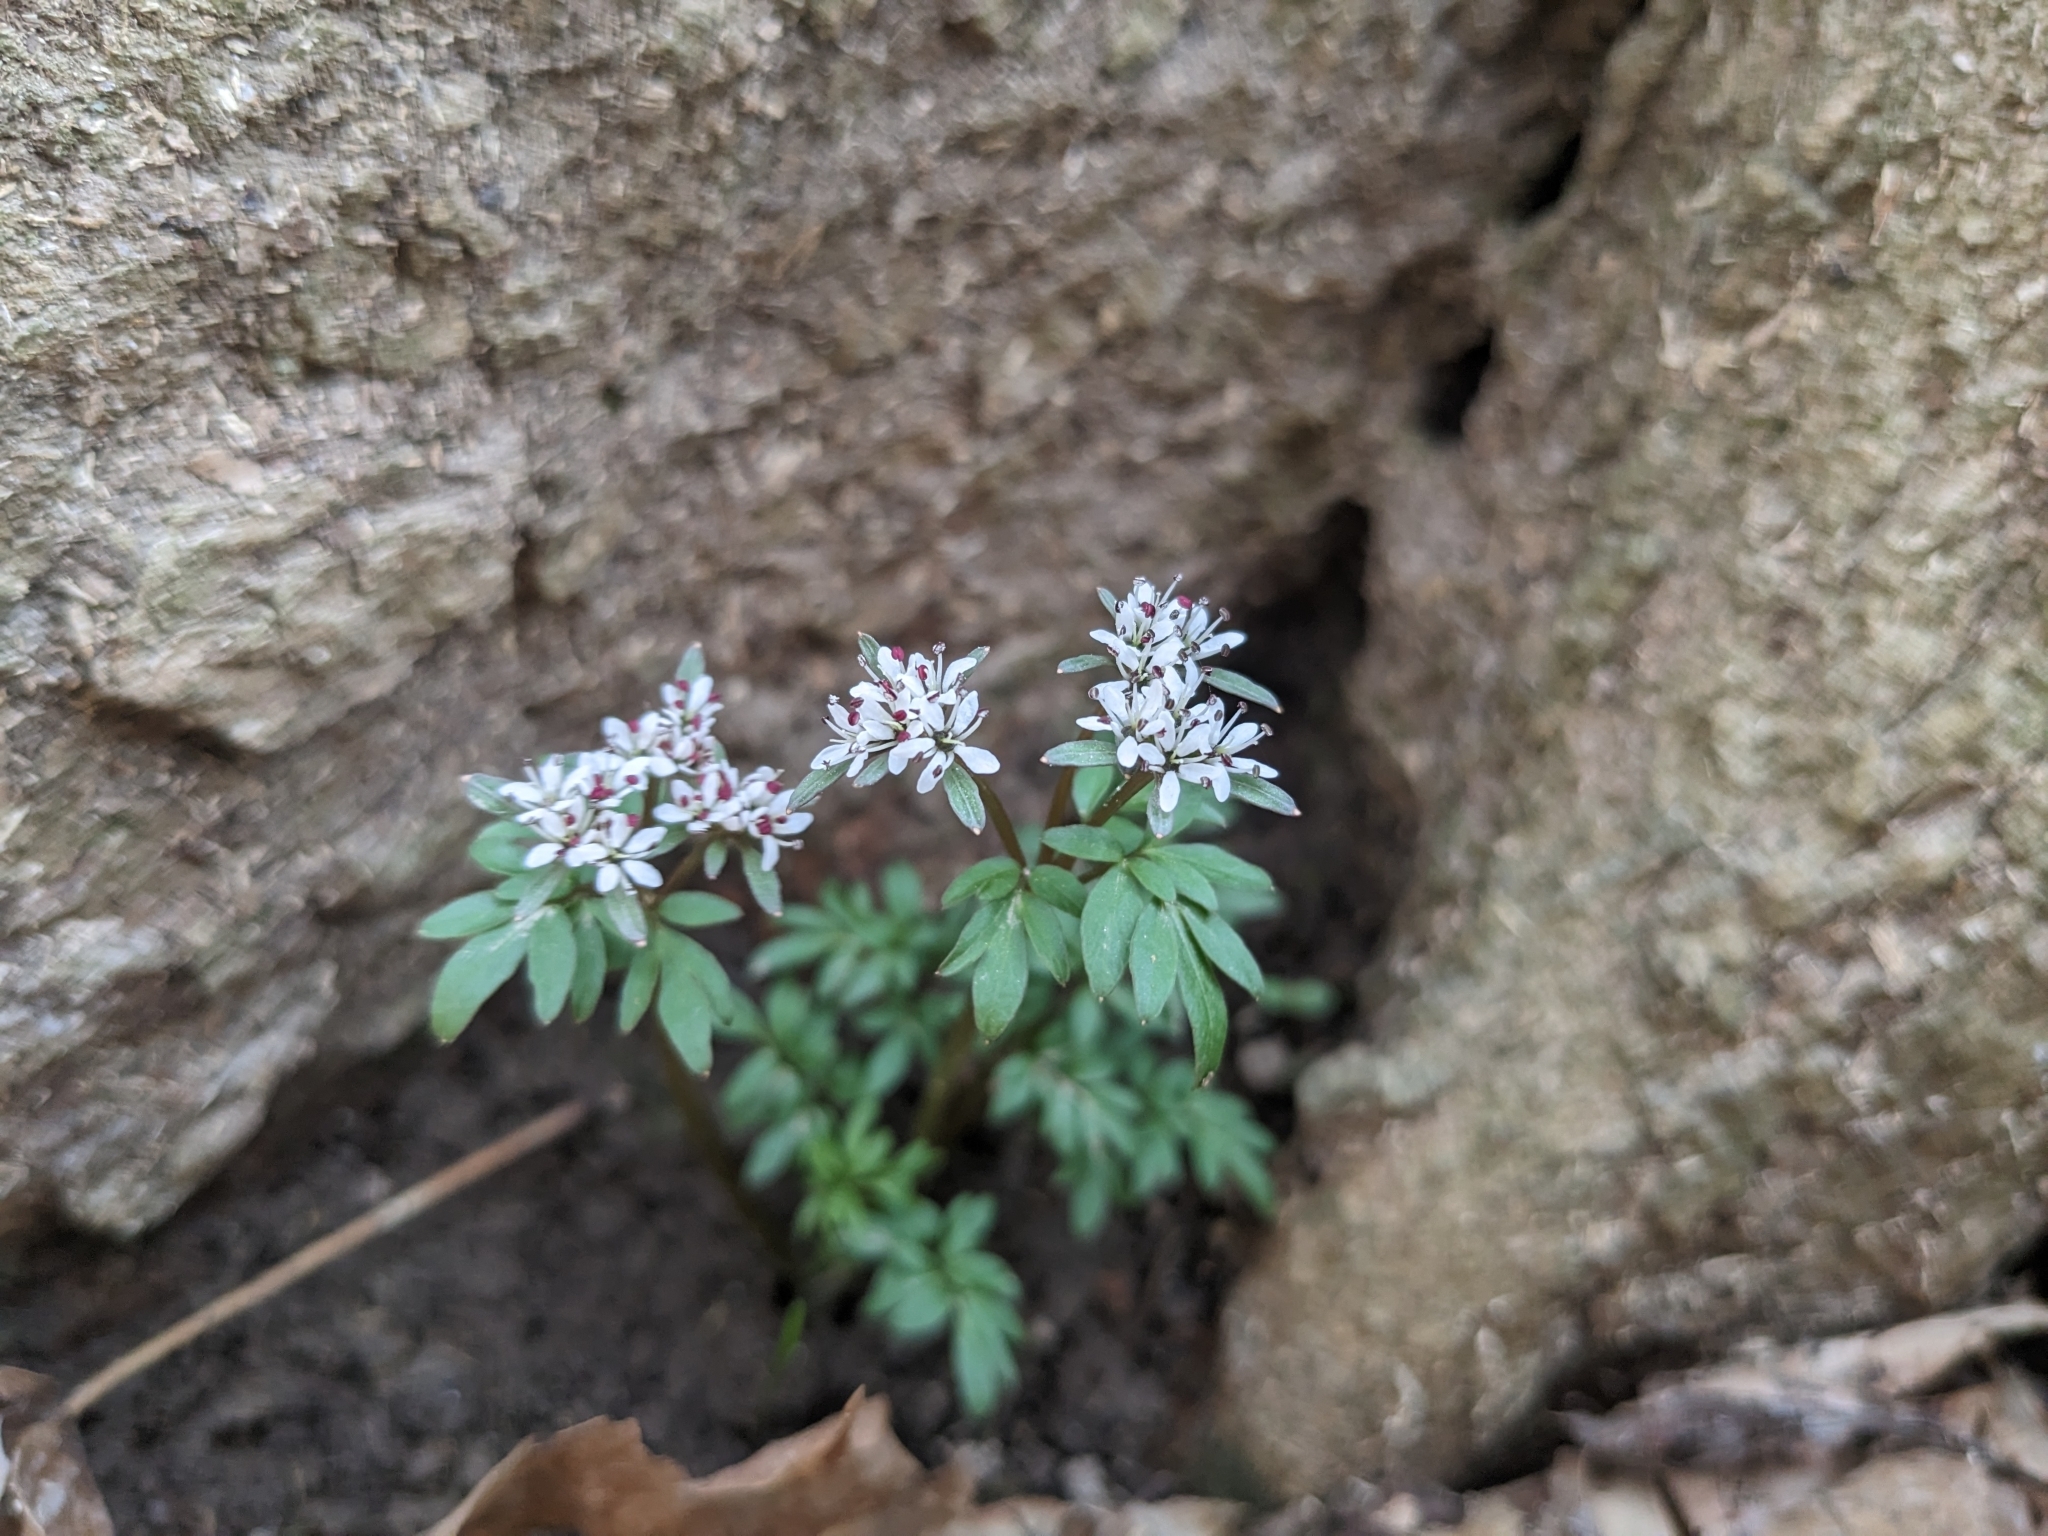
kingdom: Plantae
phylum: Tracheophyta
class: Magnoliopsida
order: Apiales
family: Apiaceae
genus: Erigenia
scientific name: Erigenia bulbosa
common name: Pepper-and-salt
